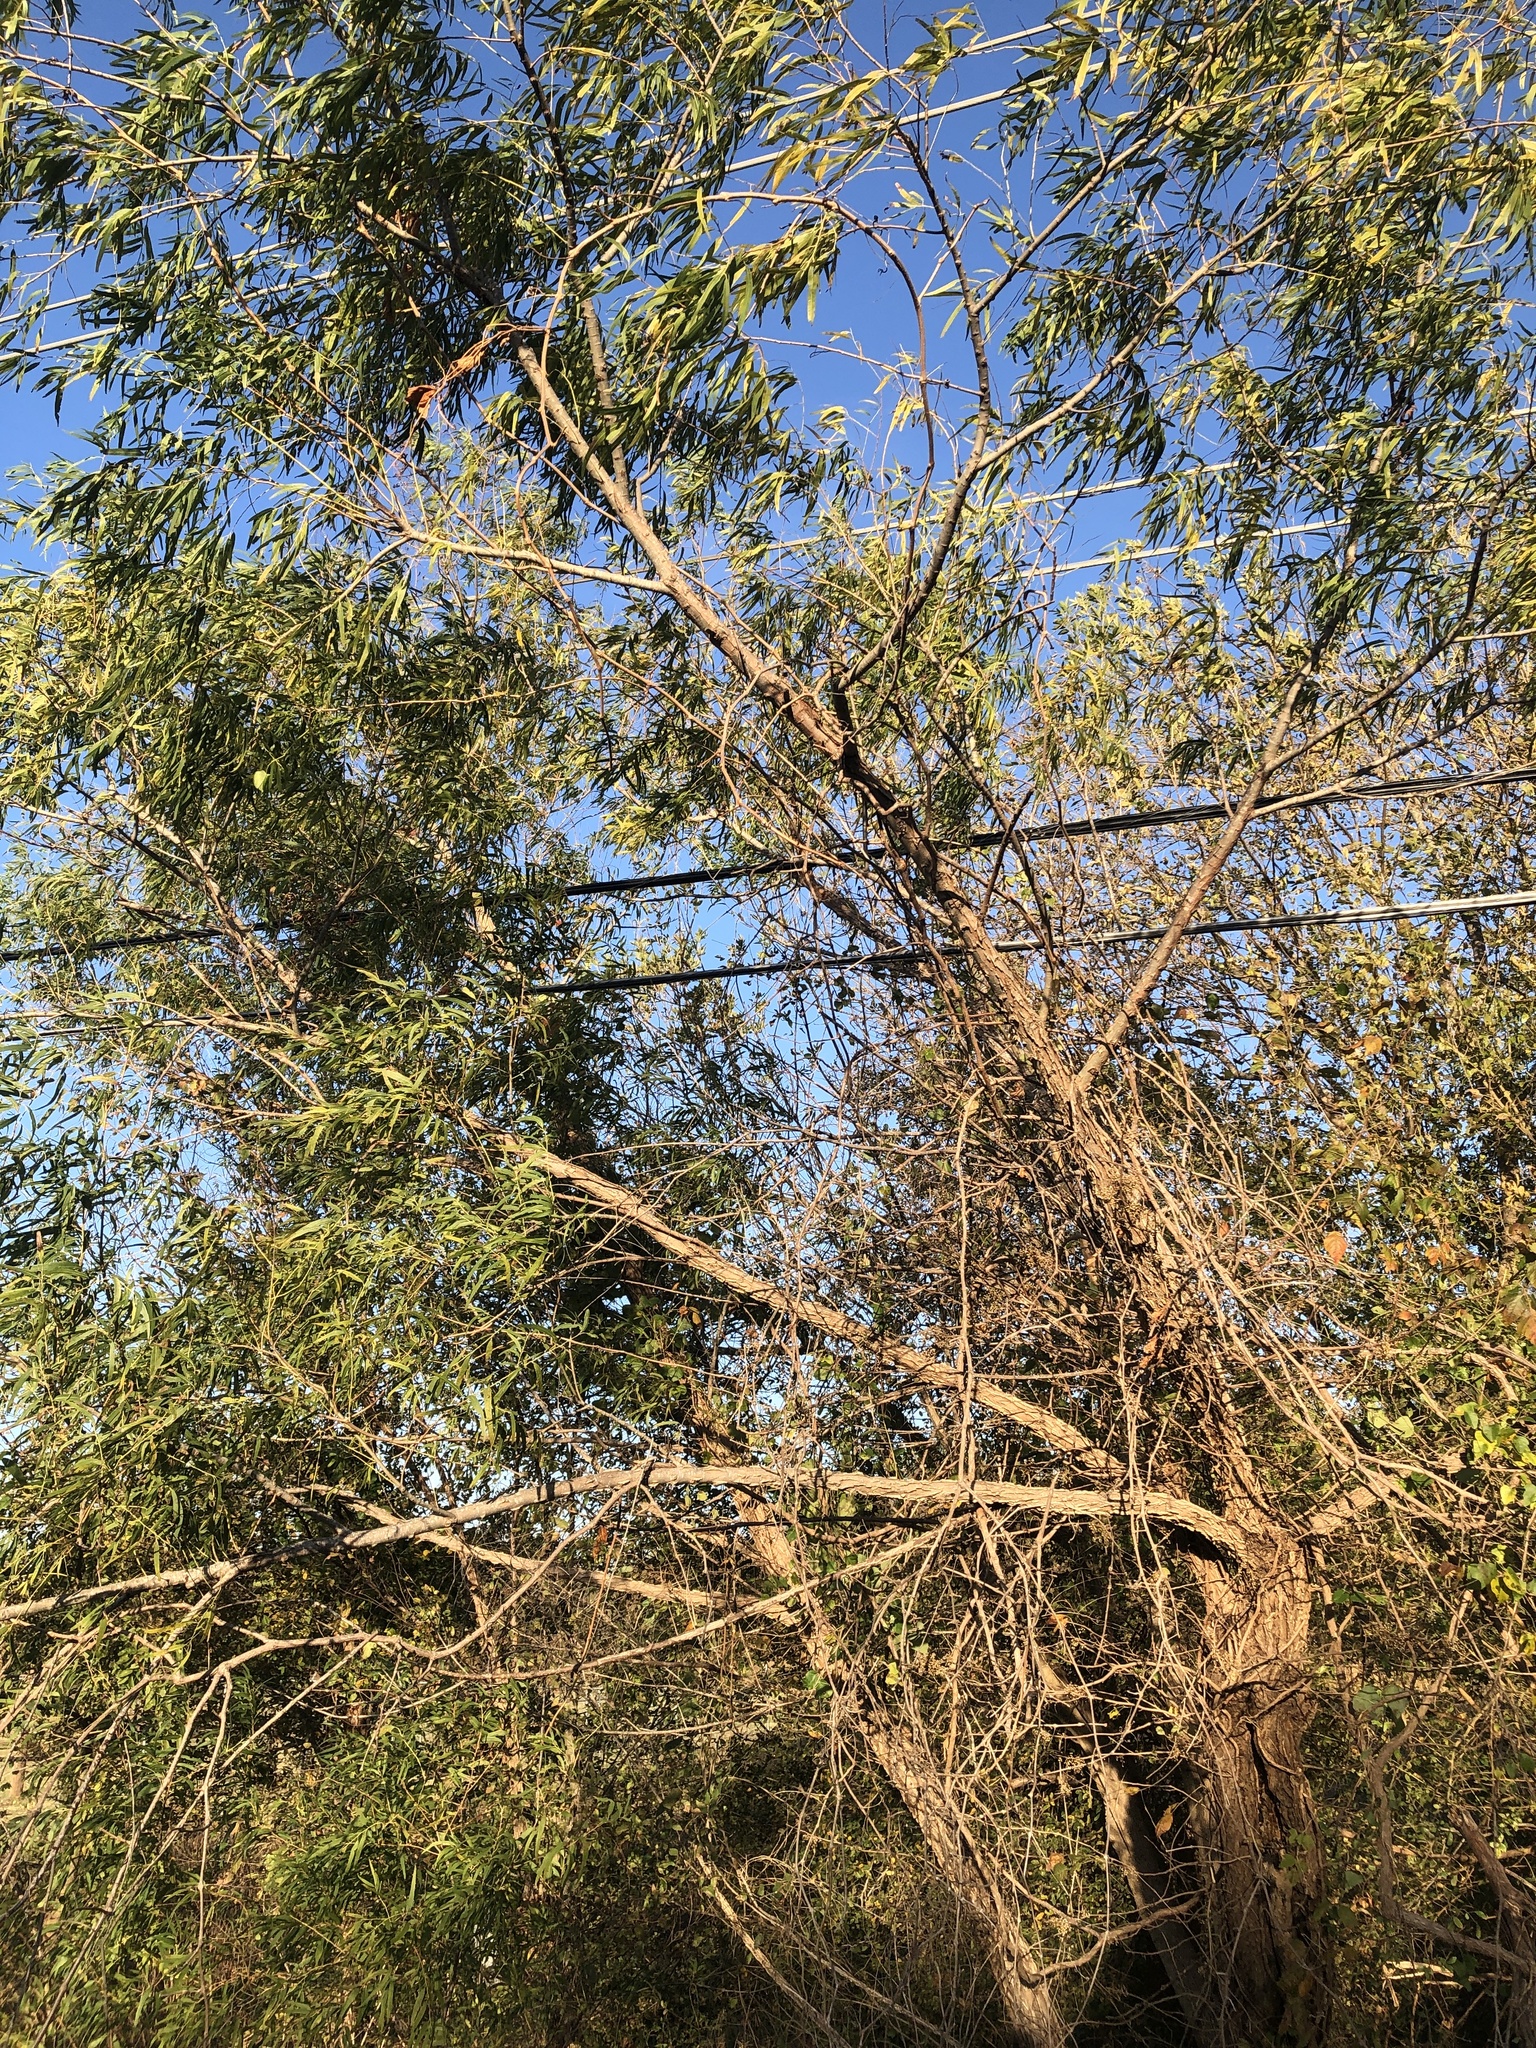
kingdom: Plantae
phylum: Tracheophyta
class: Magnoliopsida
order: Malpighiales
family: Salicaceae
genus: Salix
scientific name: Salix nigra
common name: Black willow
